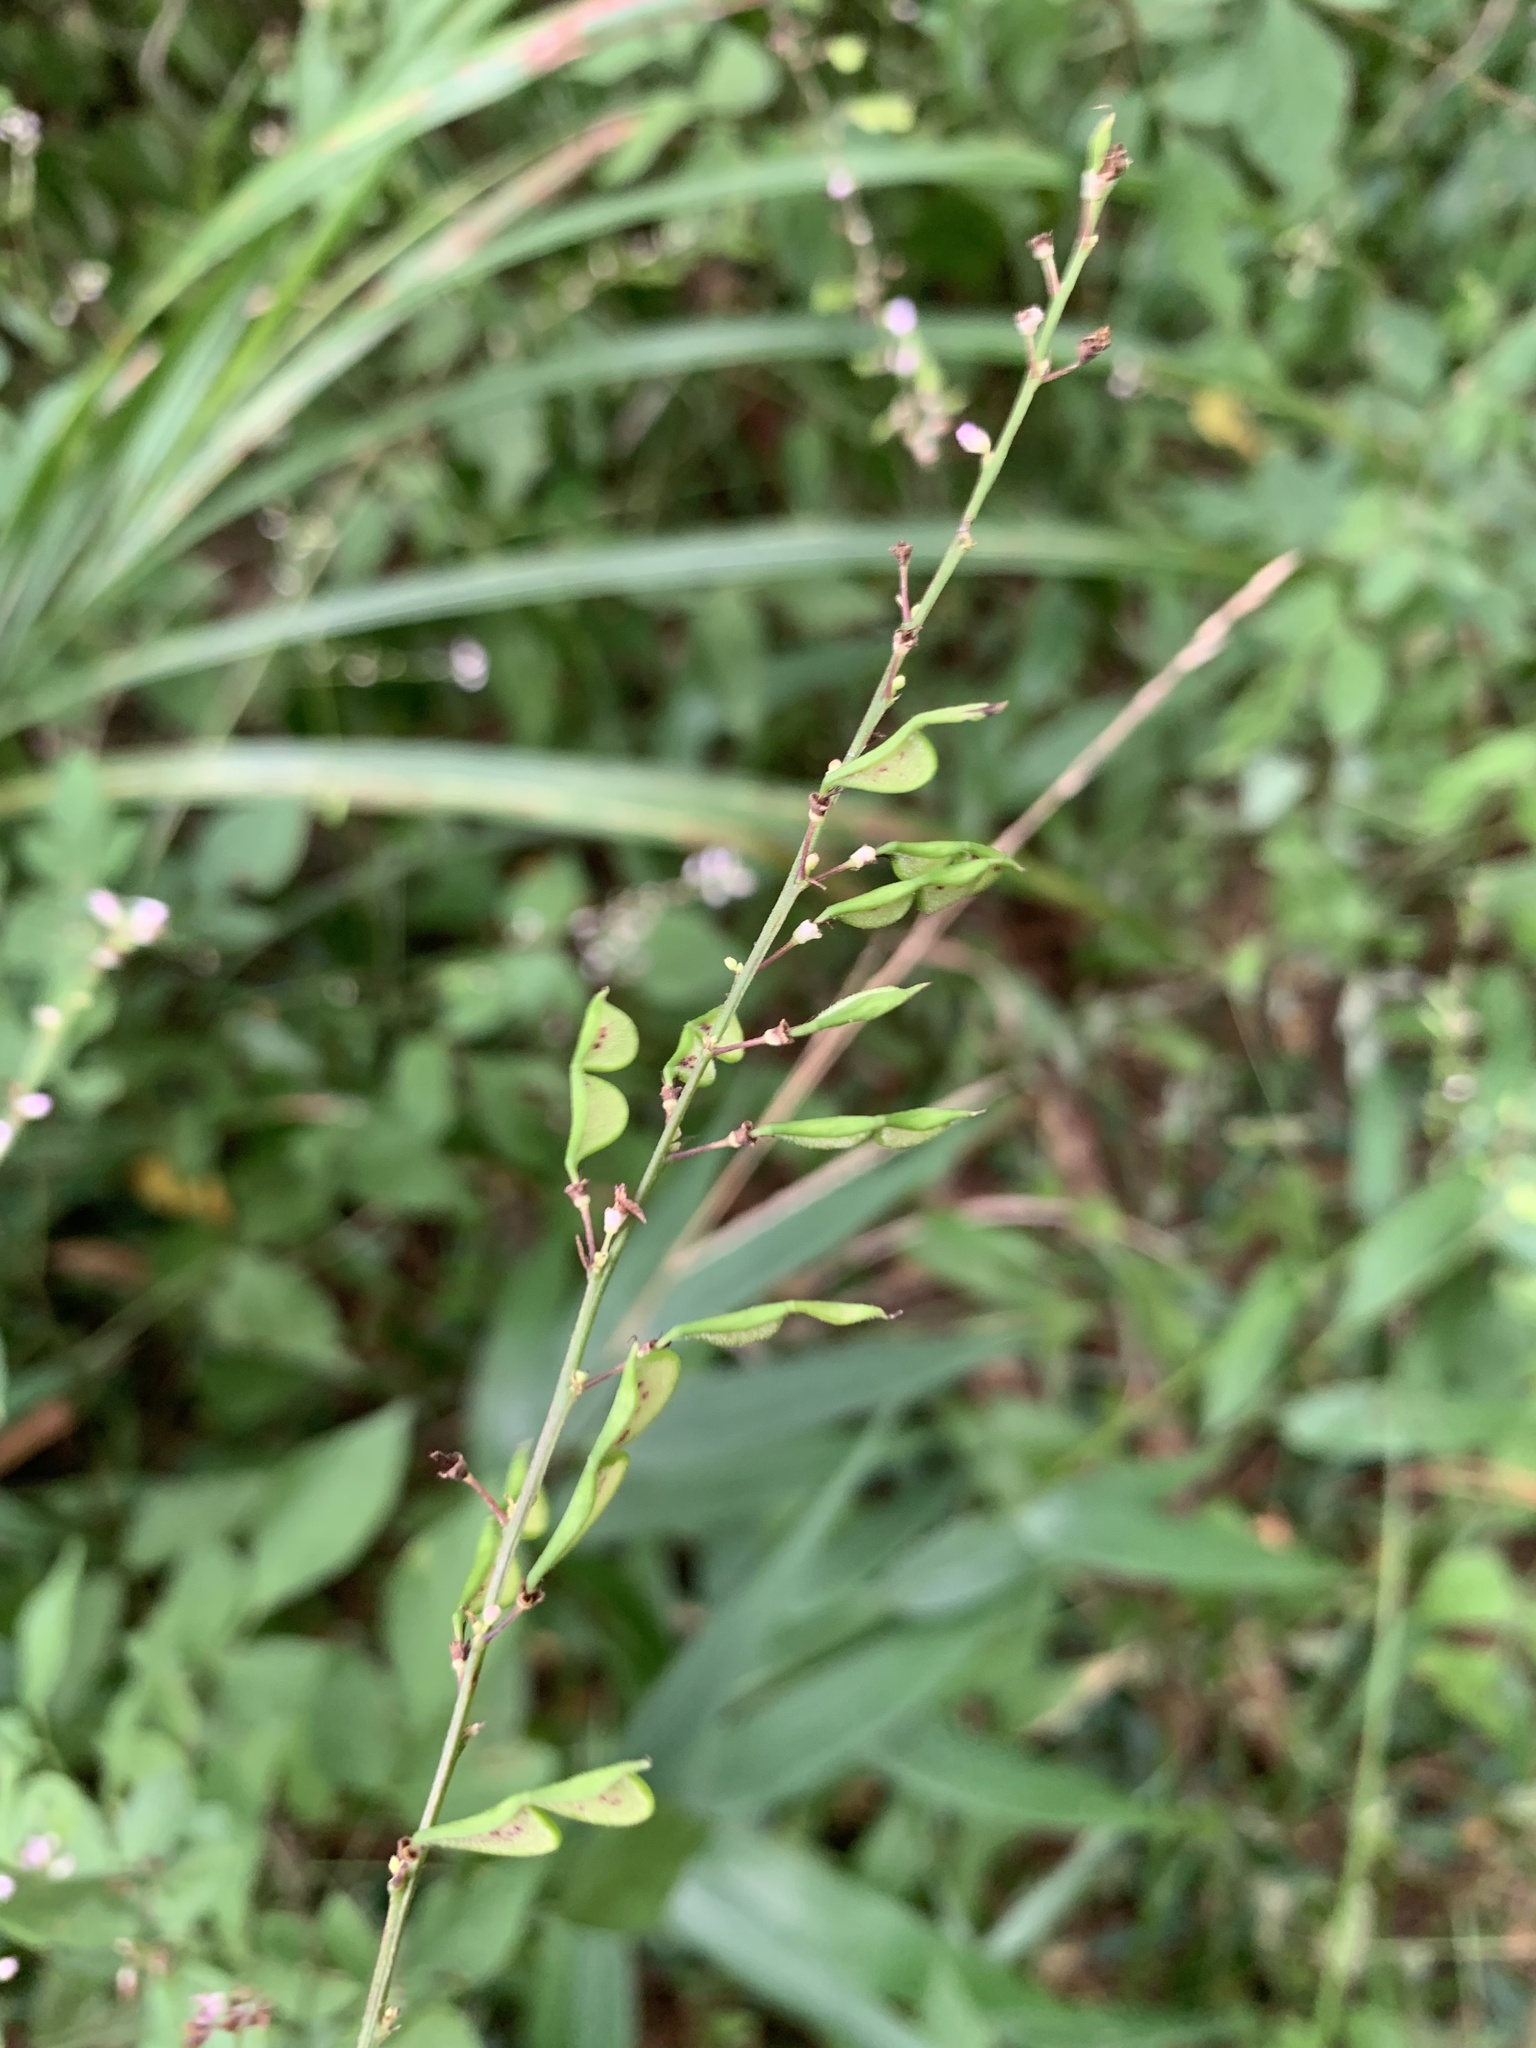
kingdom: Plantae
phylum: Tracheophyta
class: Magnoliopsida
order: Fabales
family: Fabaceae
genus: Hylodesmum
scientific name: Hylodesmum podocarpum
